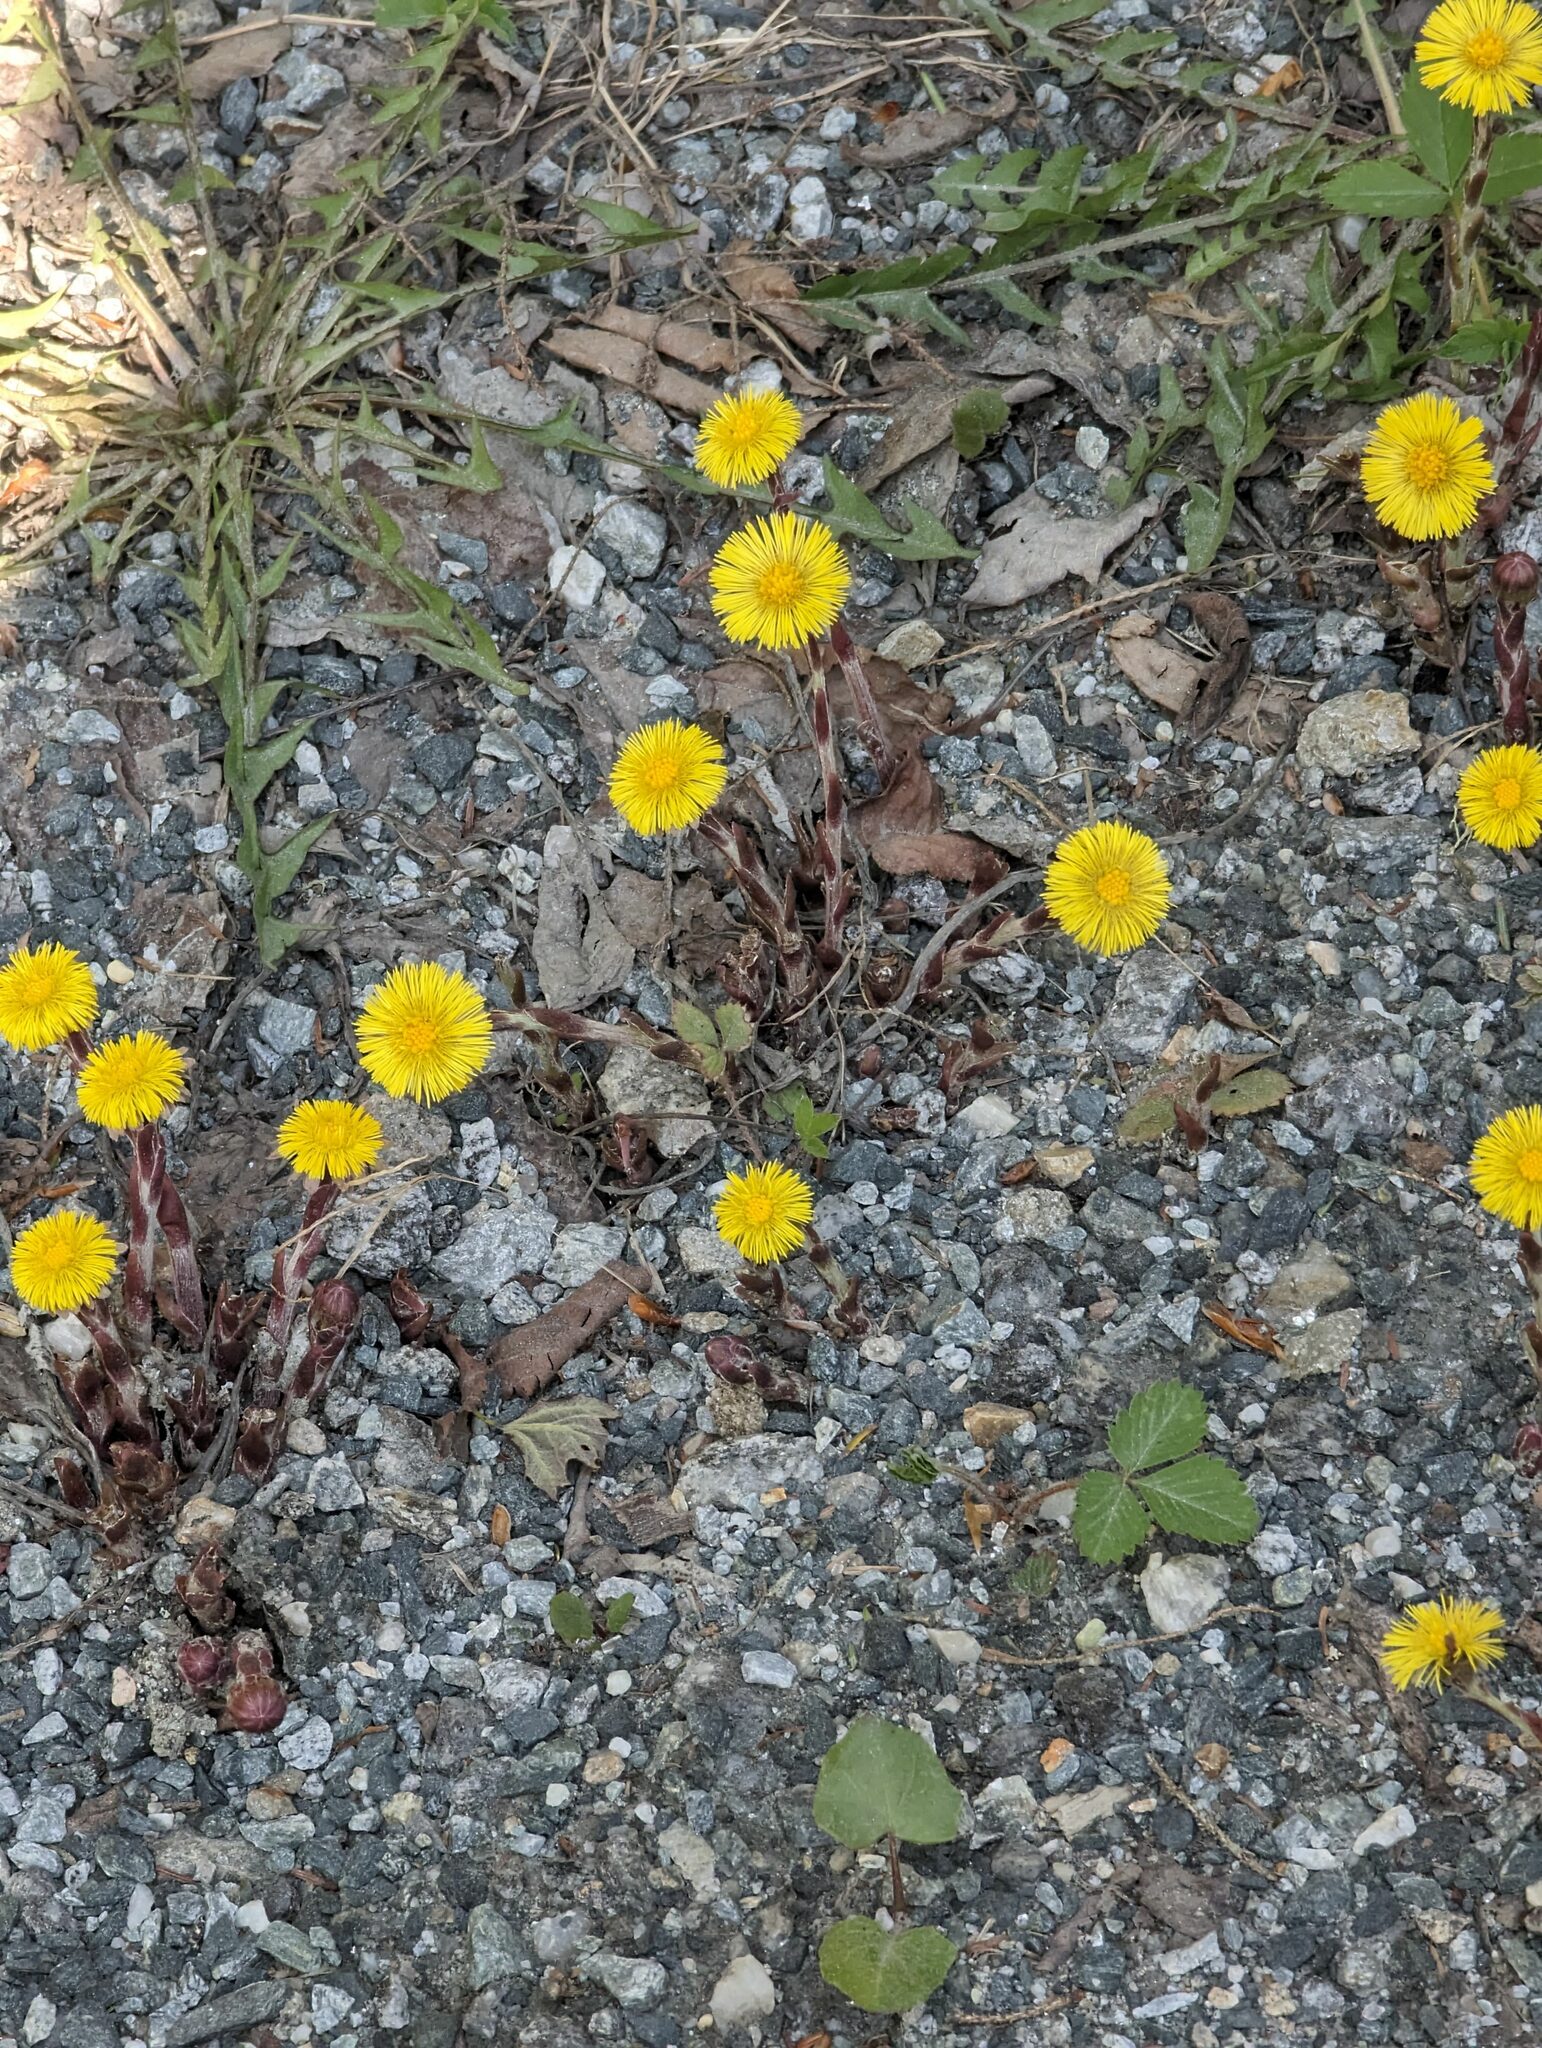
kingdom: Plantae
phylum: Tracheophyta
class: Magnoliopsida
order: Asterales
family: Asteraceae
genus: Tussilago
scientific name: Tussilago farfara
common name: Coltsfoot
